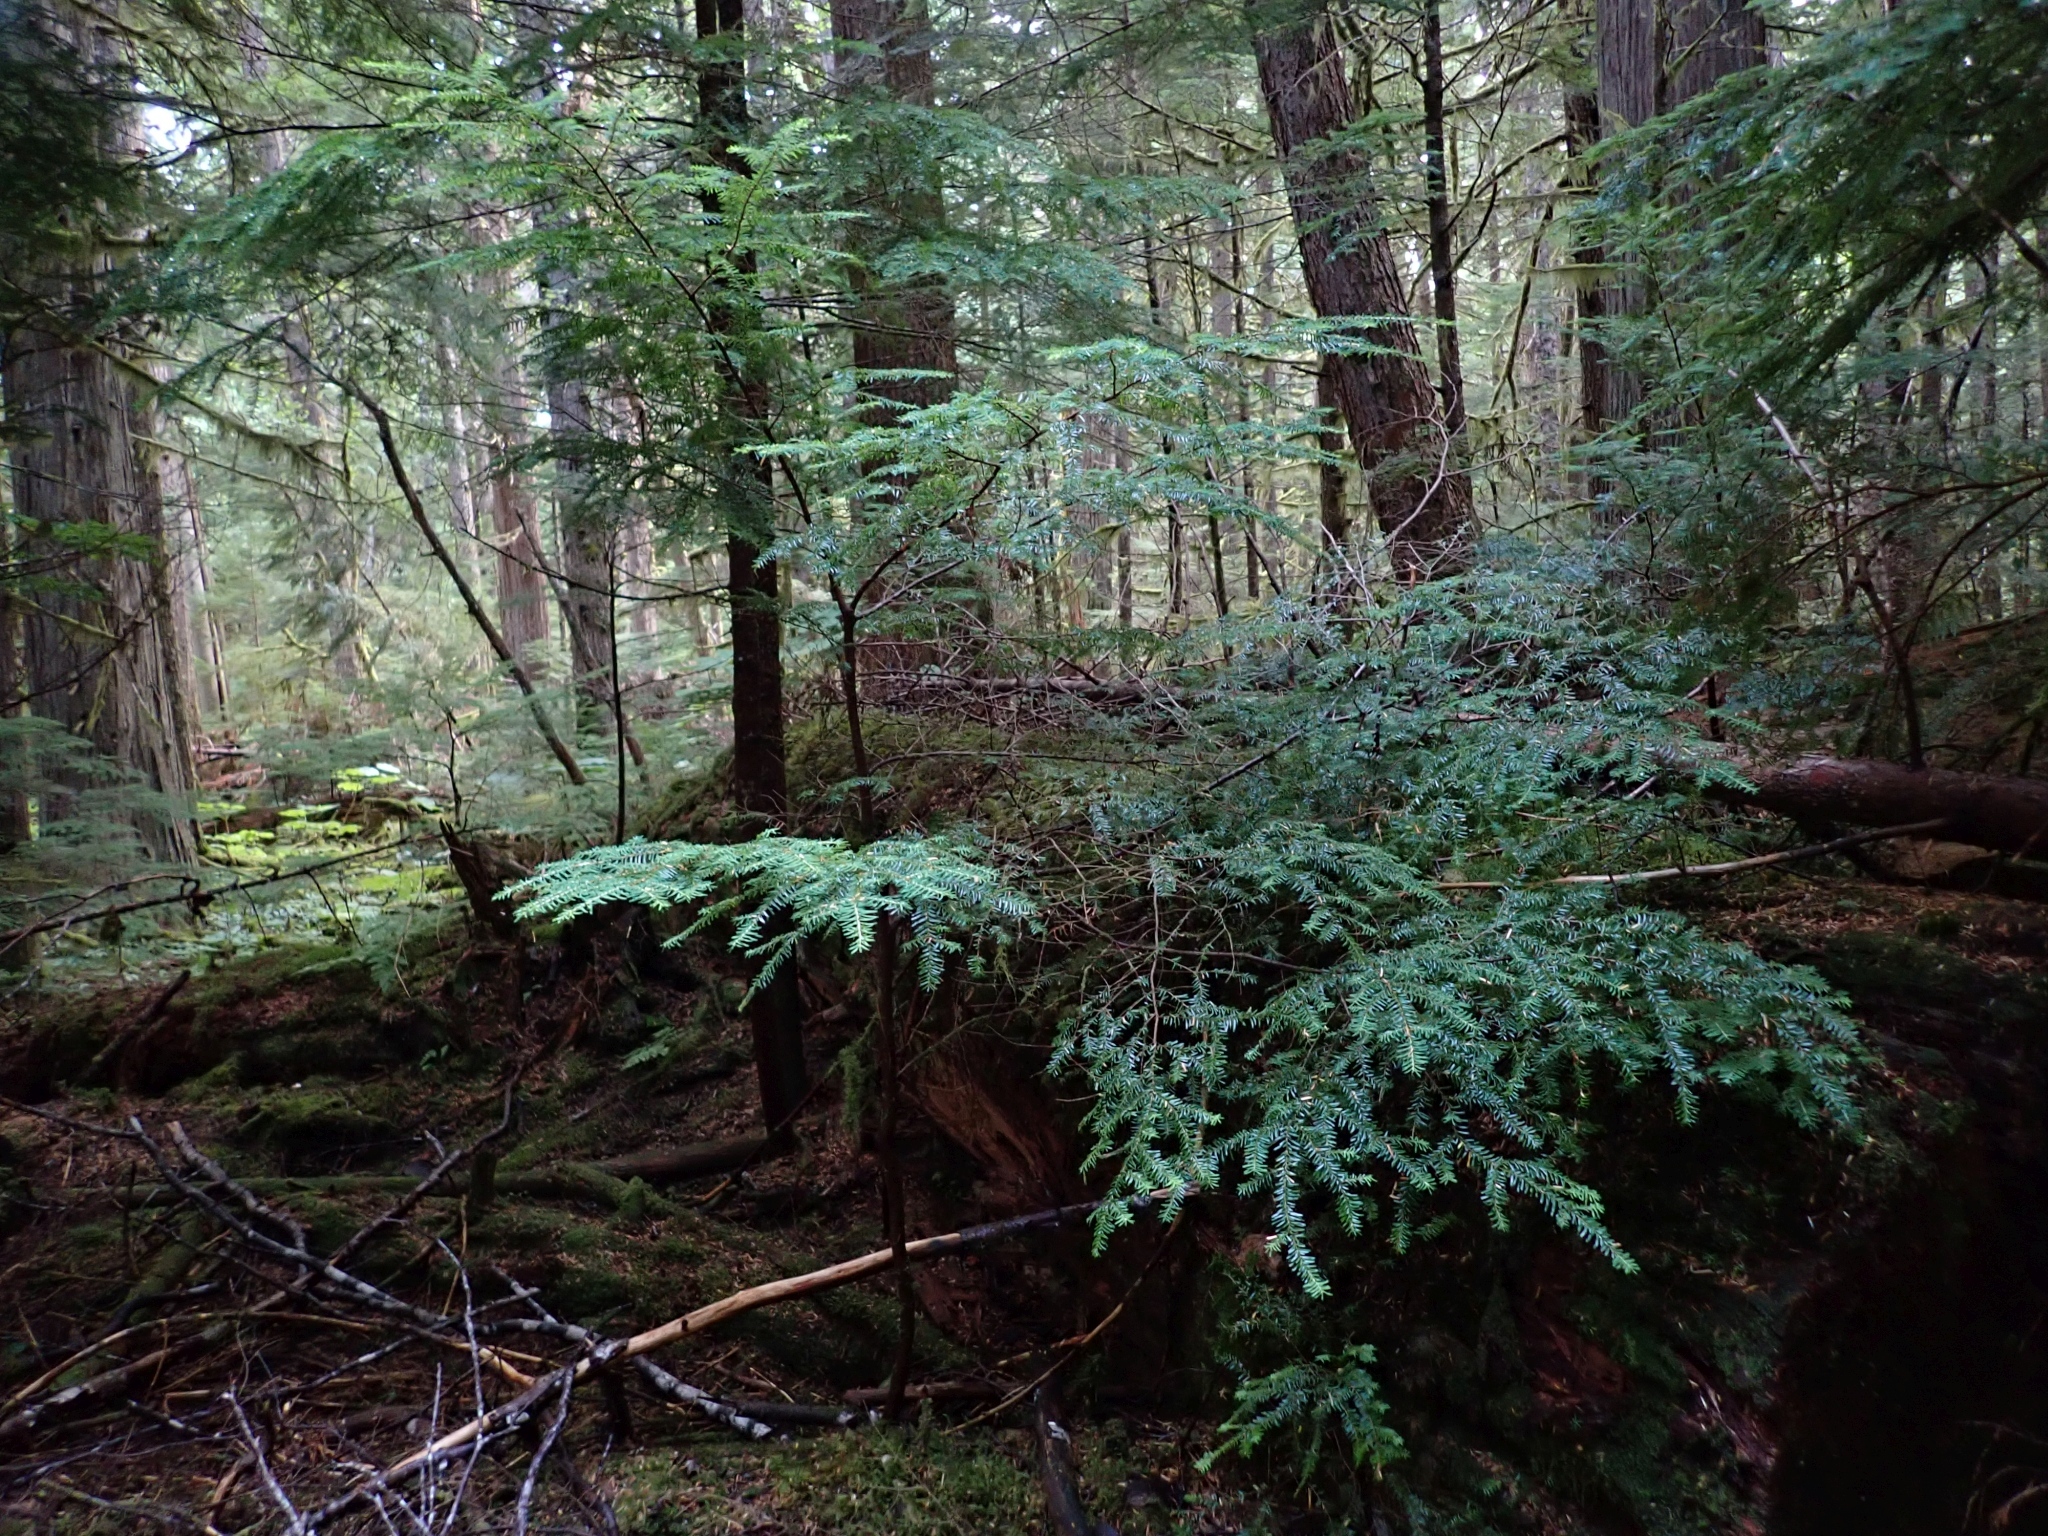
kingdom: Plantae
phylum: Tracheophyta
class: Pinopsida
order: Pinales
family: Pinaceae
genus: Tsuga
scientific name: Tsuga heterophylla
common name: Western hemlock
